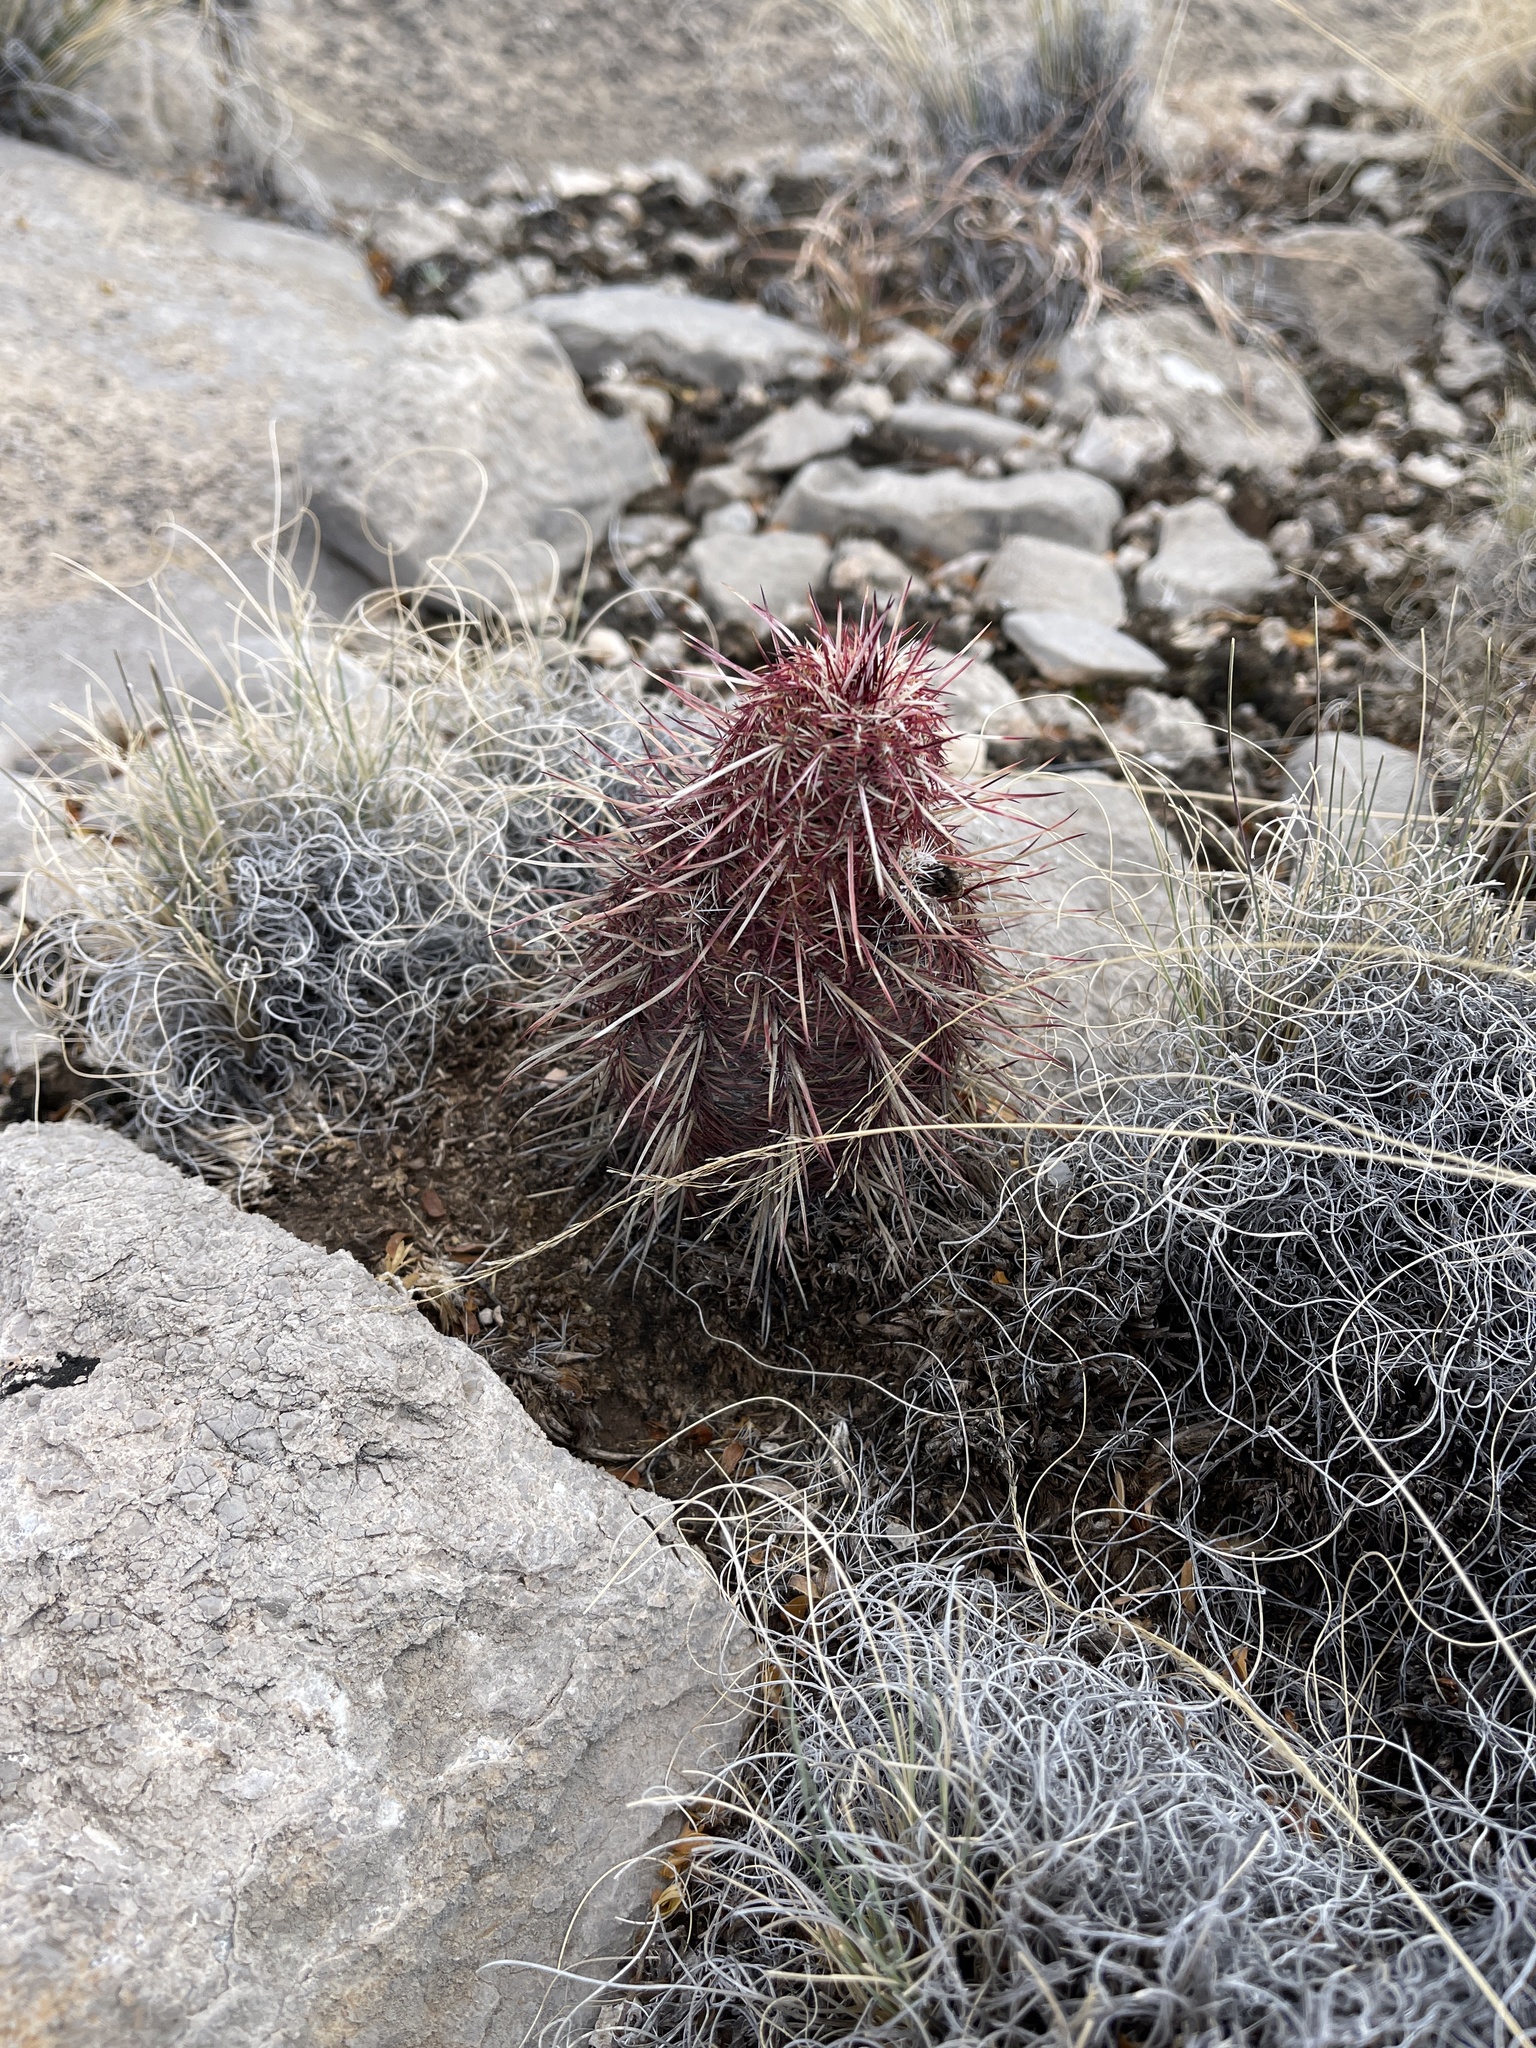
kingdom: Plantae
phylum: Tracheophyta
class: Magnoliopsida
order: Caryophyllales
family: Cactaceae
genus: Echinocereus
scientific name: Echinocereus viridiflorus
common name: Nylon hedgehog cactus
